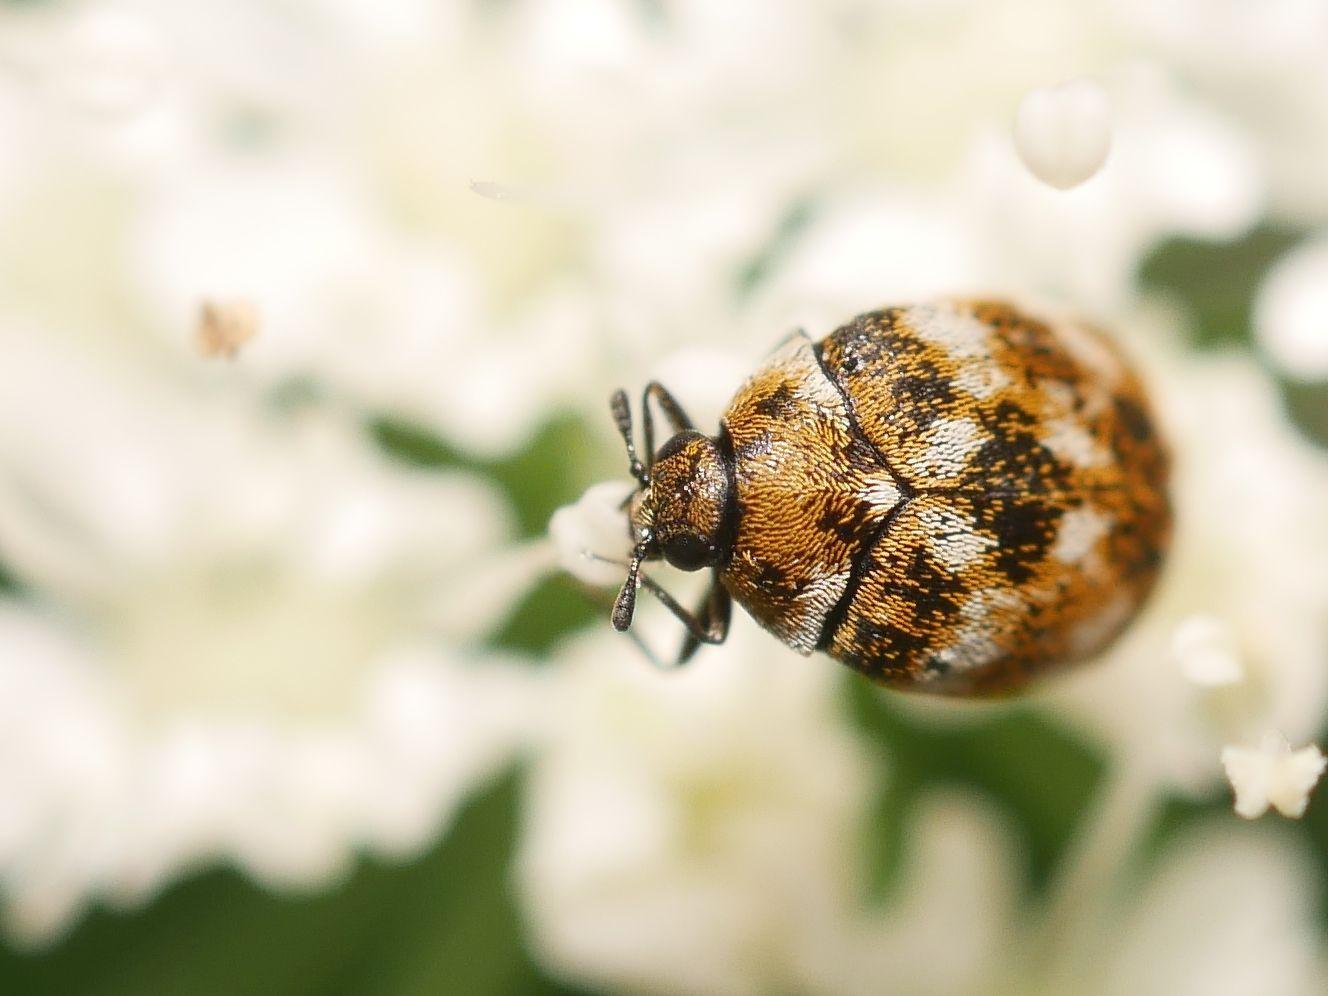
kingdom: Animalia
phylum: Arthropoda
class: Insecta
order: Coleoptera
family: Dermestidae
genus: Anthrenus
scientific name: Anthrenus verbasci
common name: Varied carpet beetle
